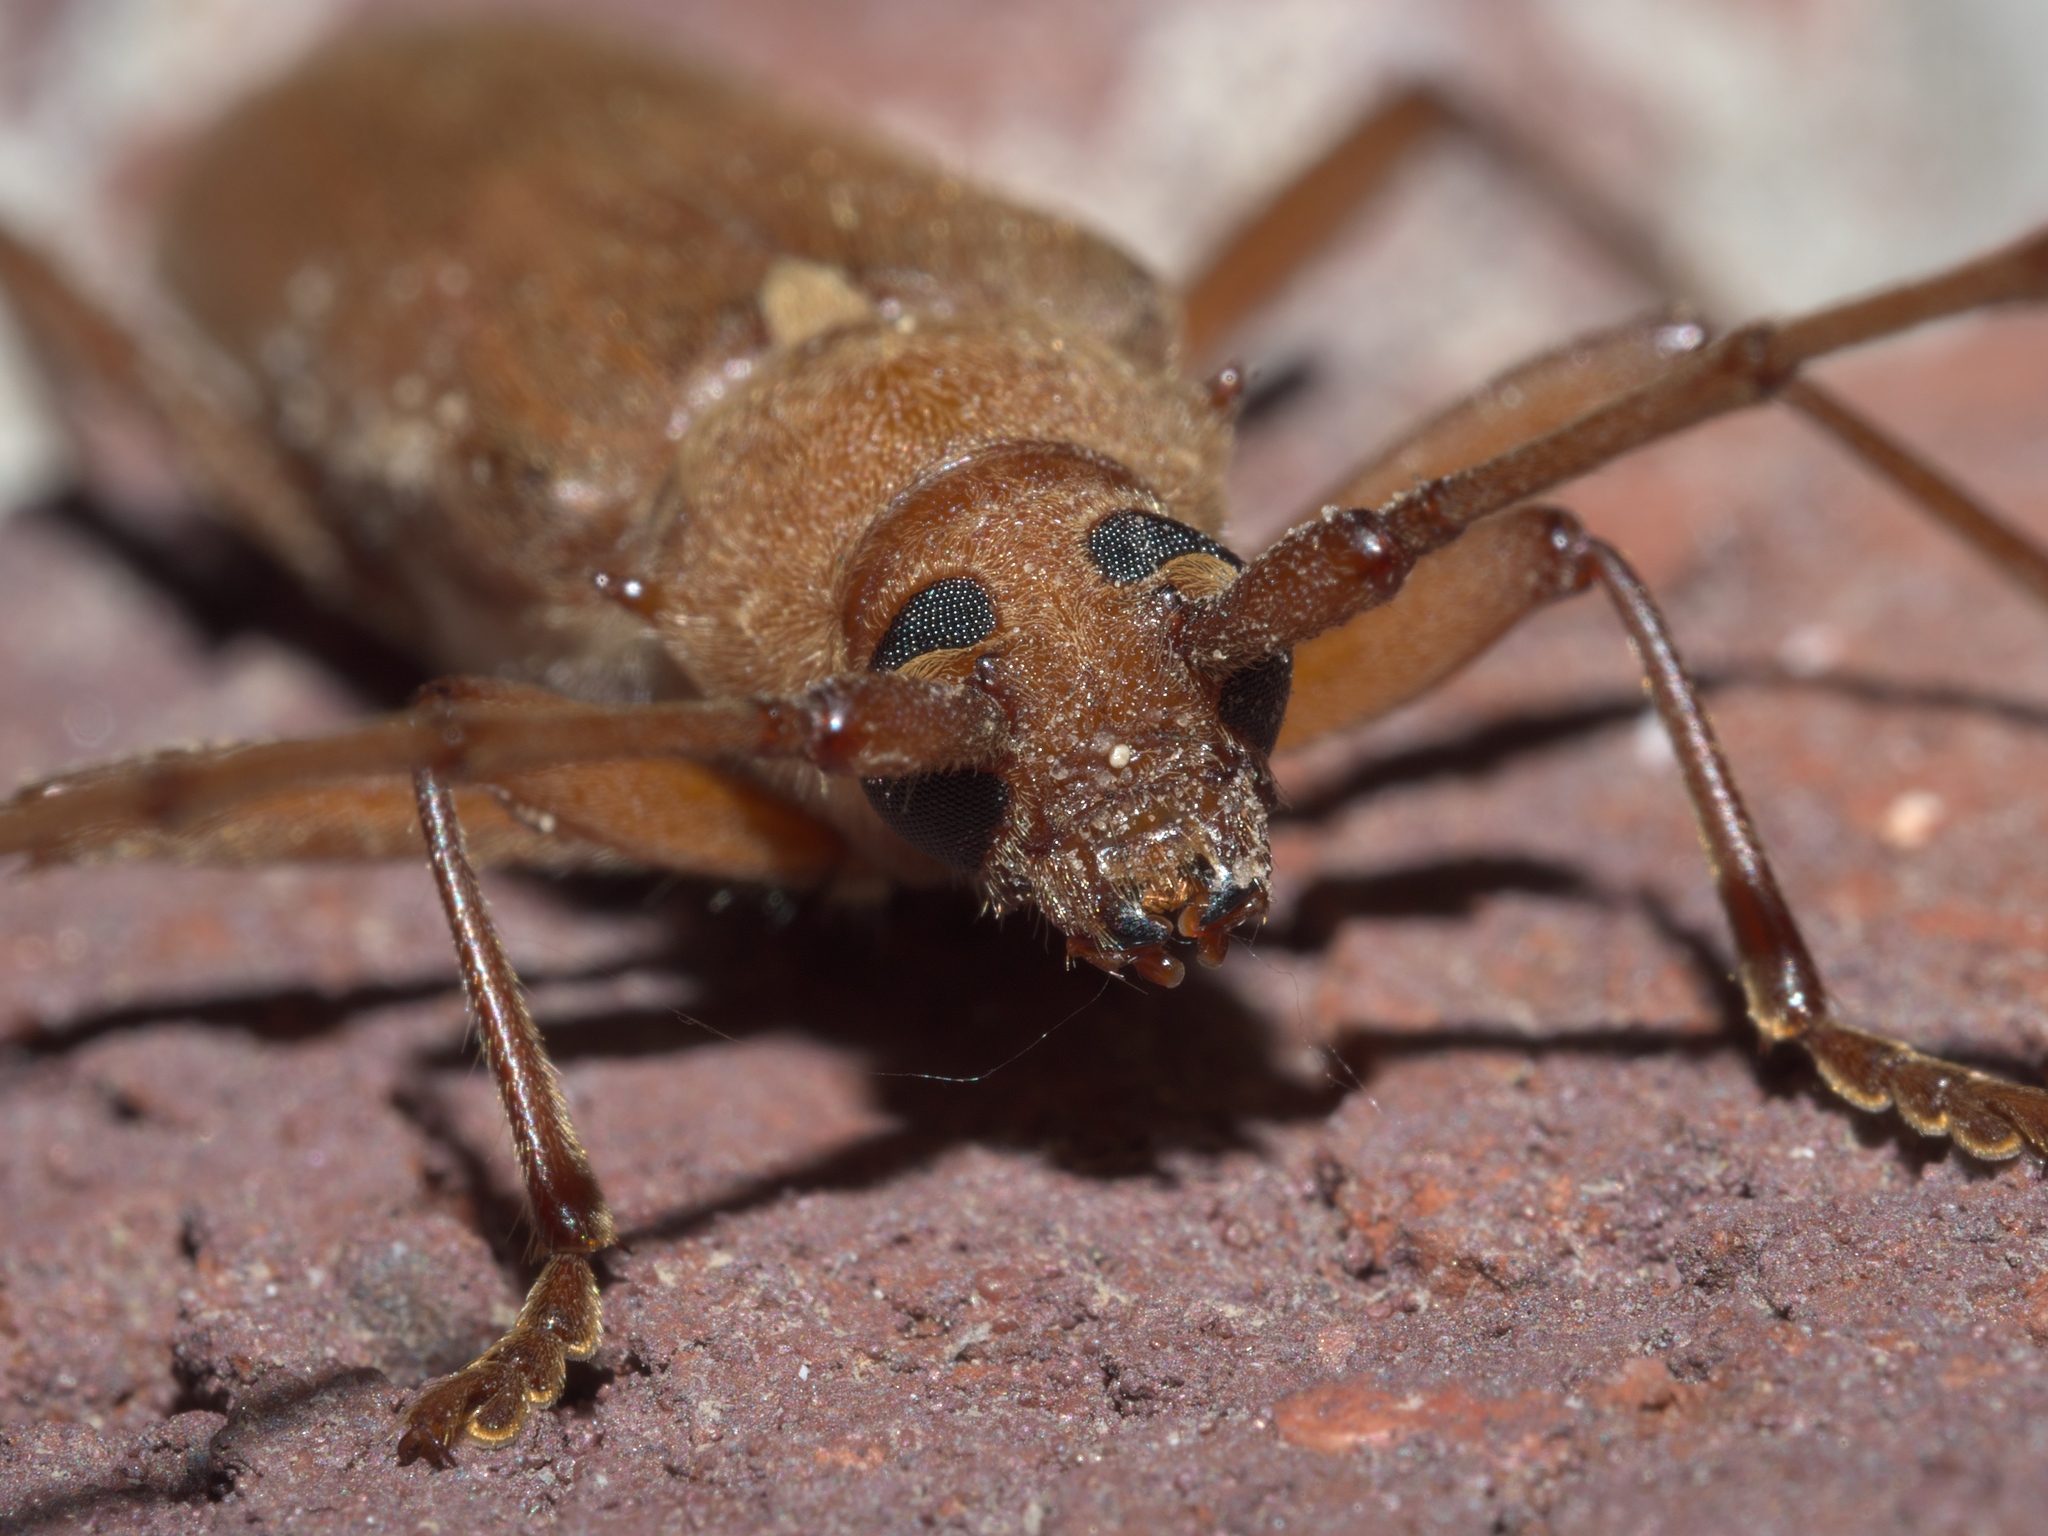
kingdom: Animalia
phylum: Arthropoda
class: Insecta
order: Coleoptera
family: Cerambycidae
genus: Knulliana
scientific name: Knulliana cincta
